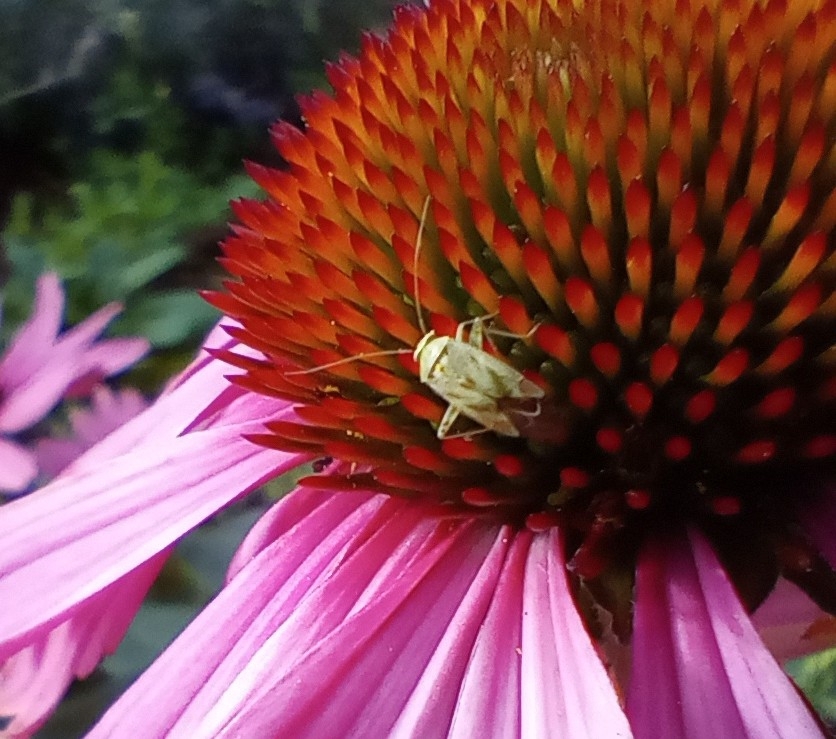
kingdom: Animalia
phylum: Arthropoda
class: Insecta
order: Hemiptera
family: Miridae
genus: Taylorilygus
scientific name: Taylorilygus apicalis
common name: Plant bug
